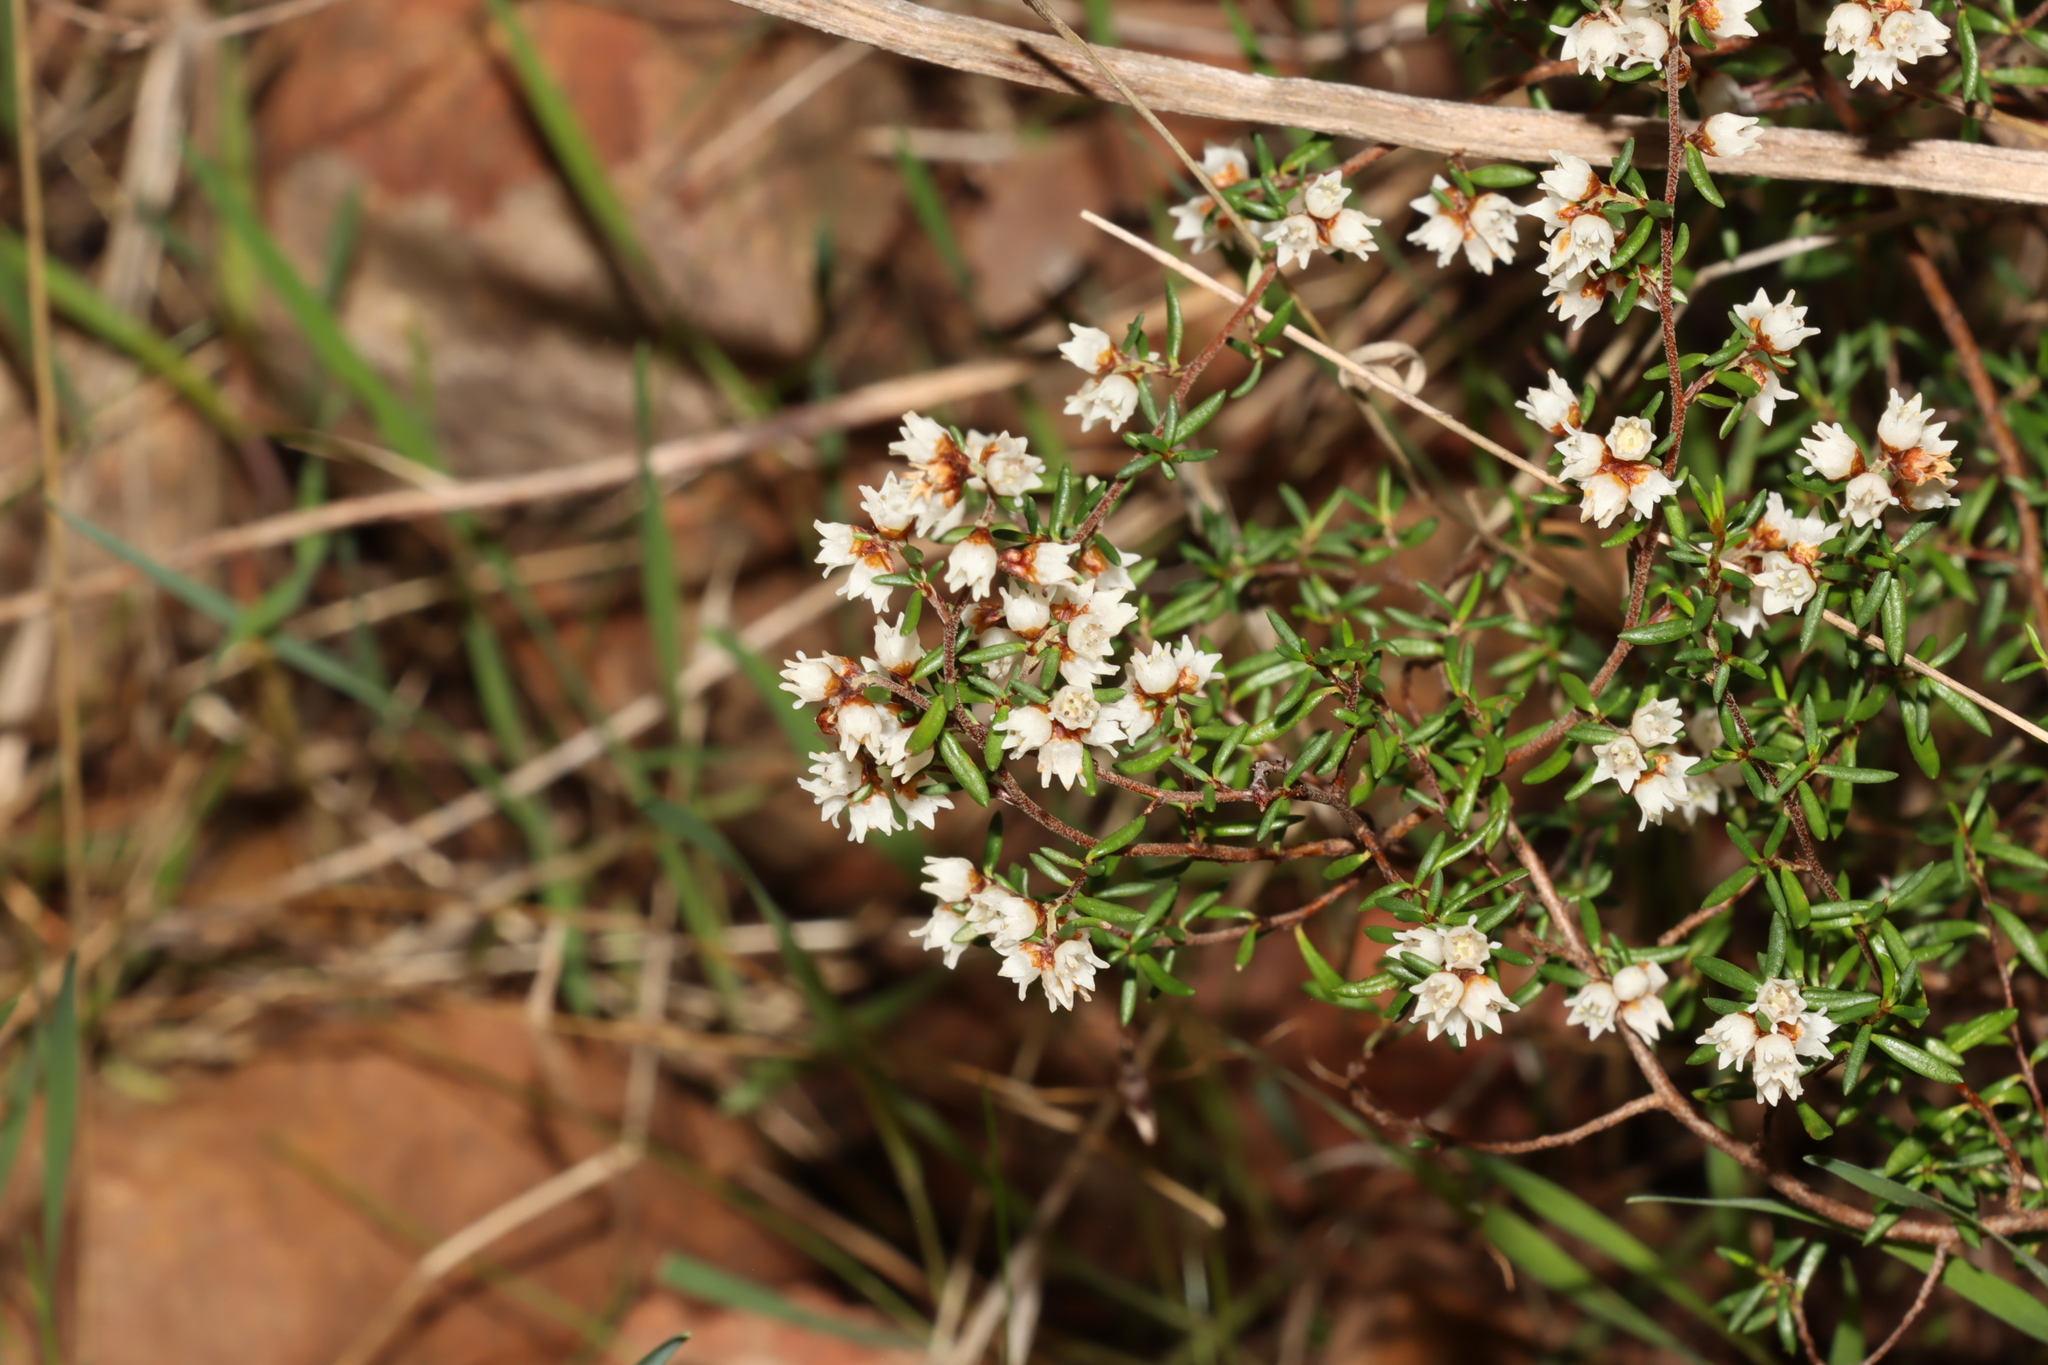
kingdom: Plantae
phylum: Tracheophyta
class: Magnoliopsida
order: Rosales
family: Rhamnaceae
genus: Cryptandra
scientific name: Cryptandra tomentosa
